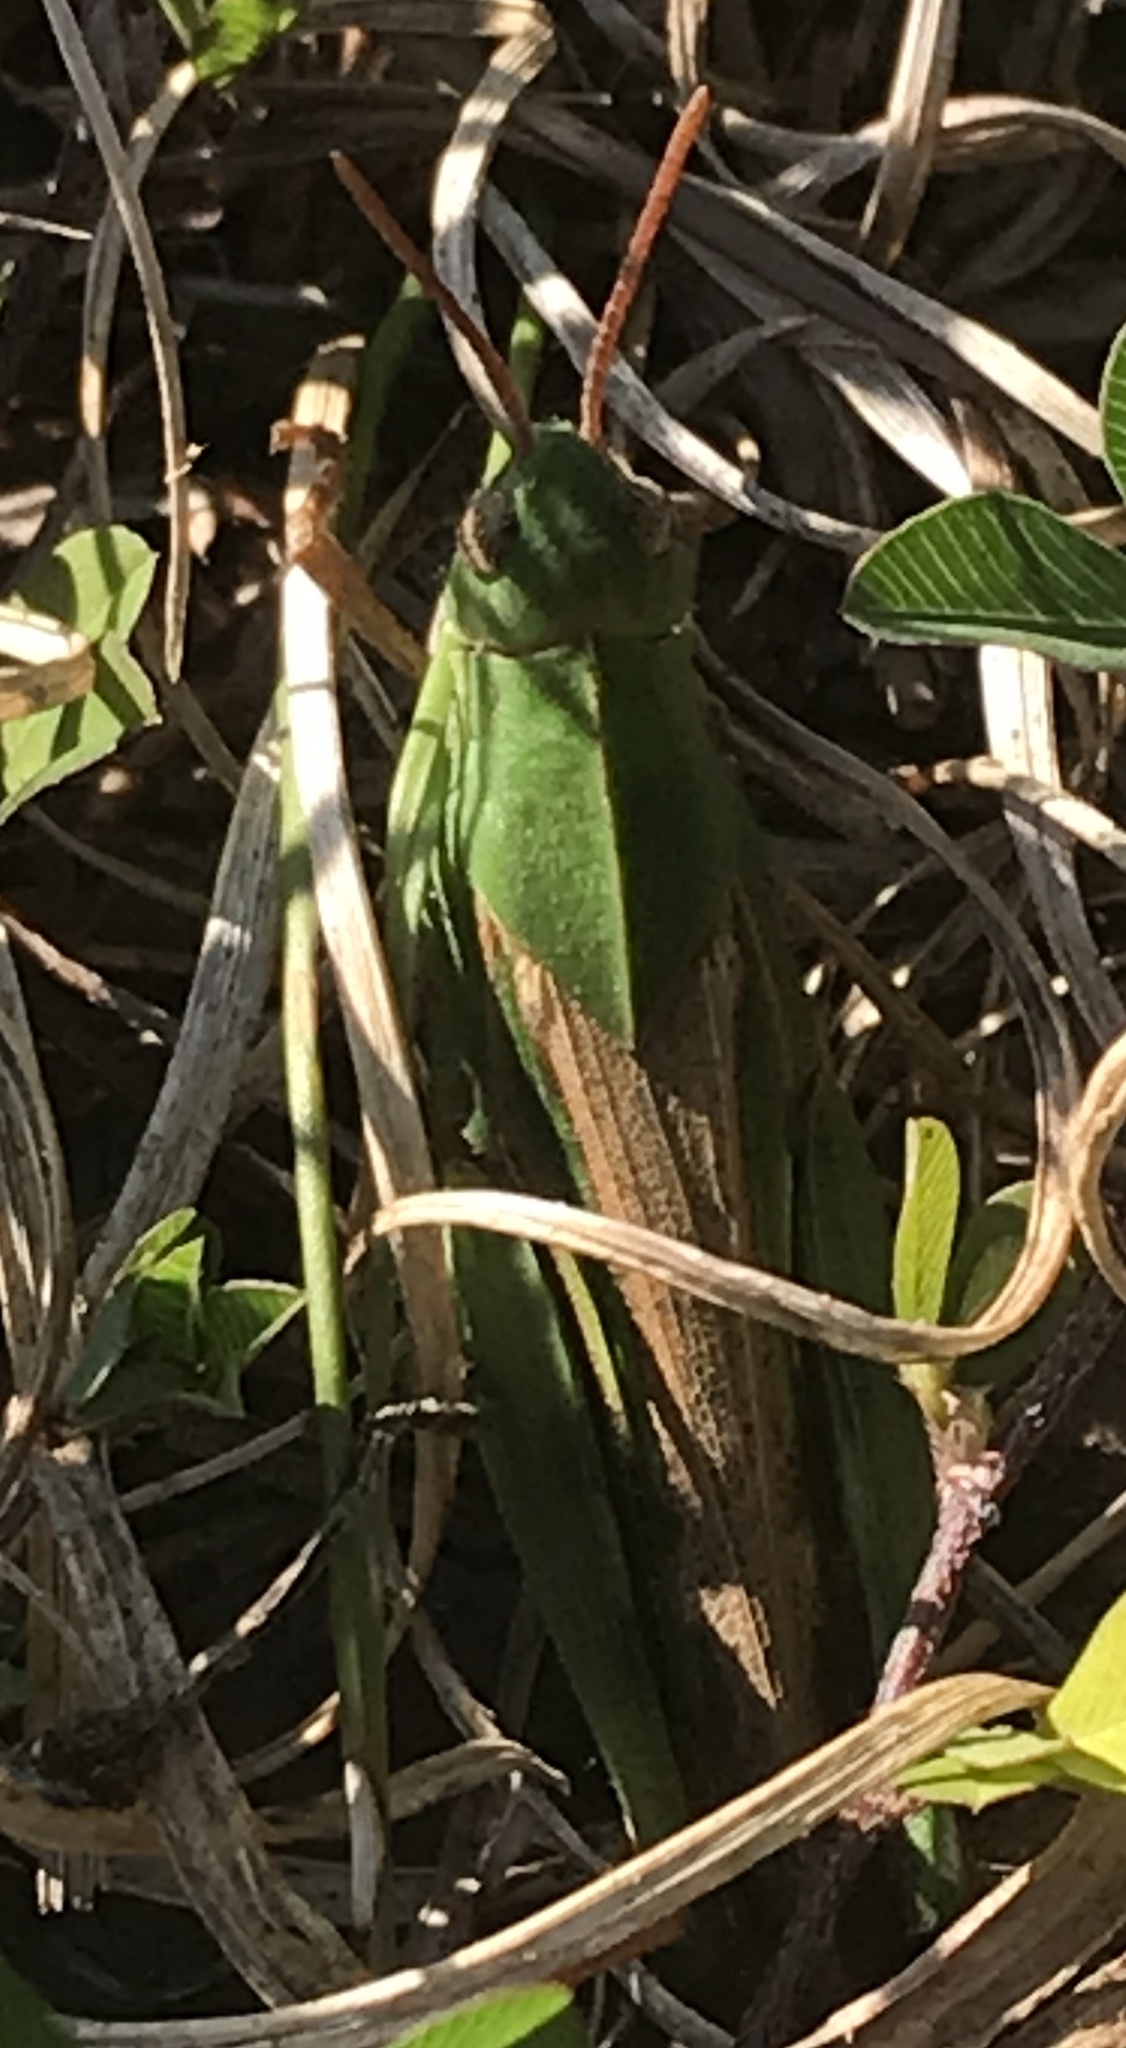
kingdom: Animalia
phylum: Arthropoda
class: Insecta
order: Orthoptera
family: Acrididae
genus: Chortophaga
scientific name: Chortophaga viridifasciata
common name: Green-striped grasshopper
